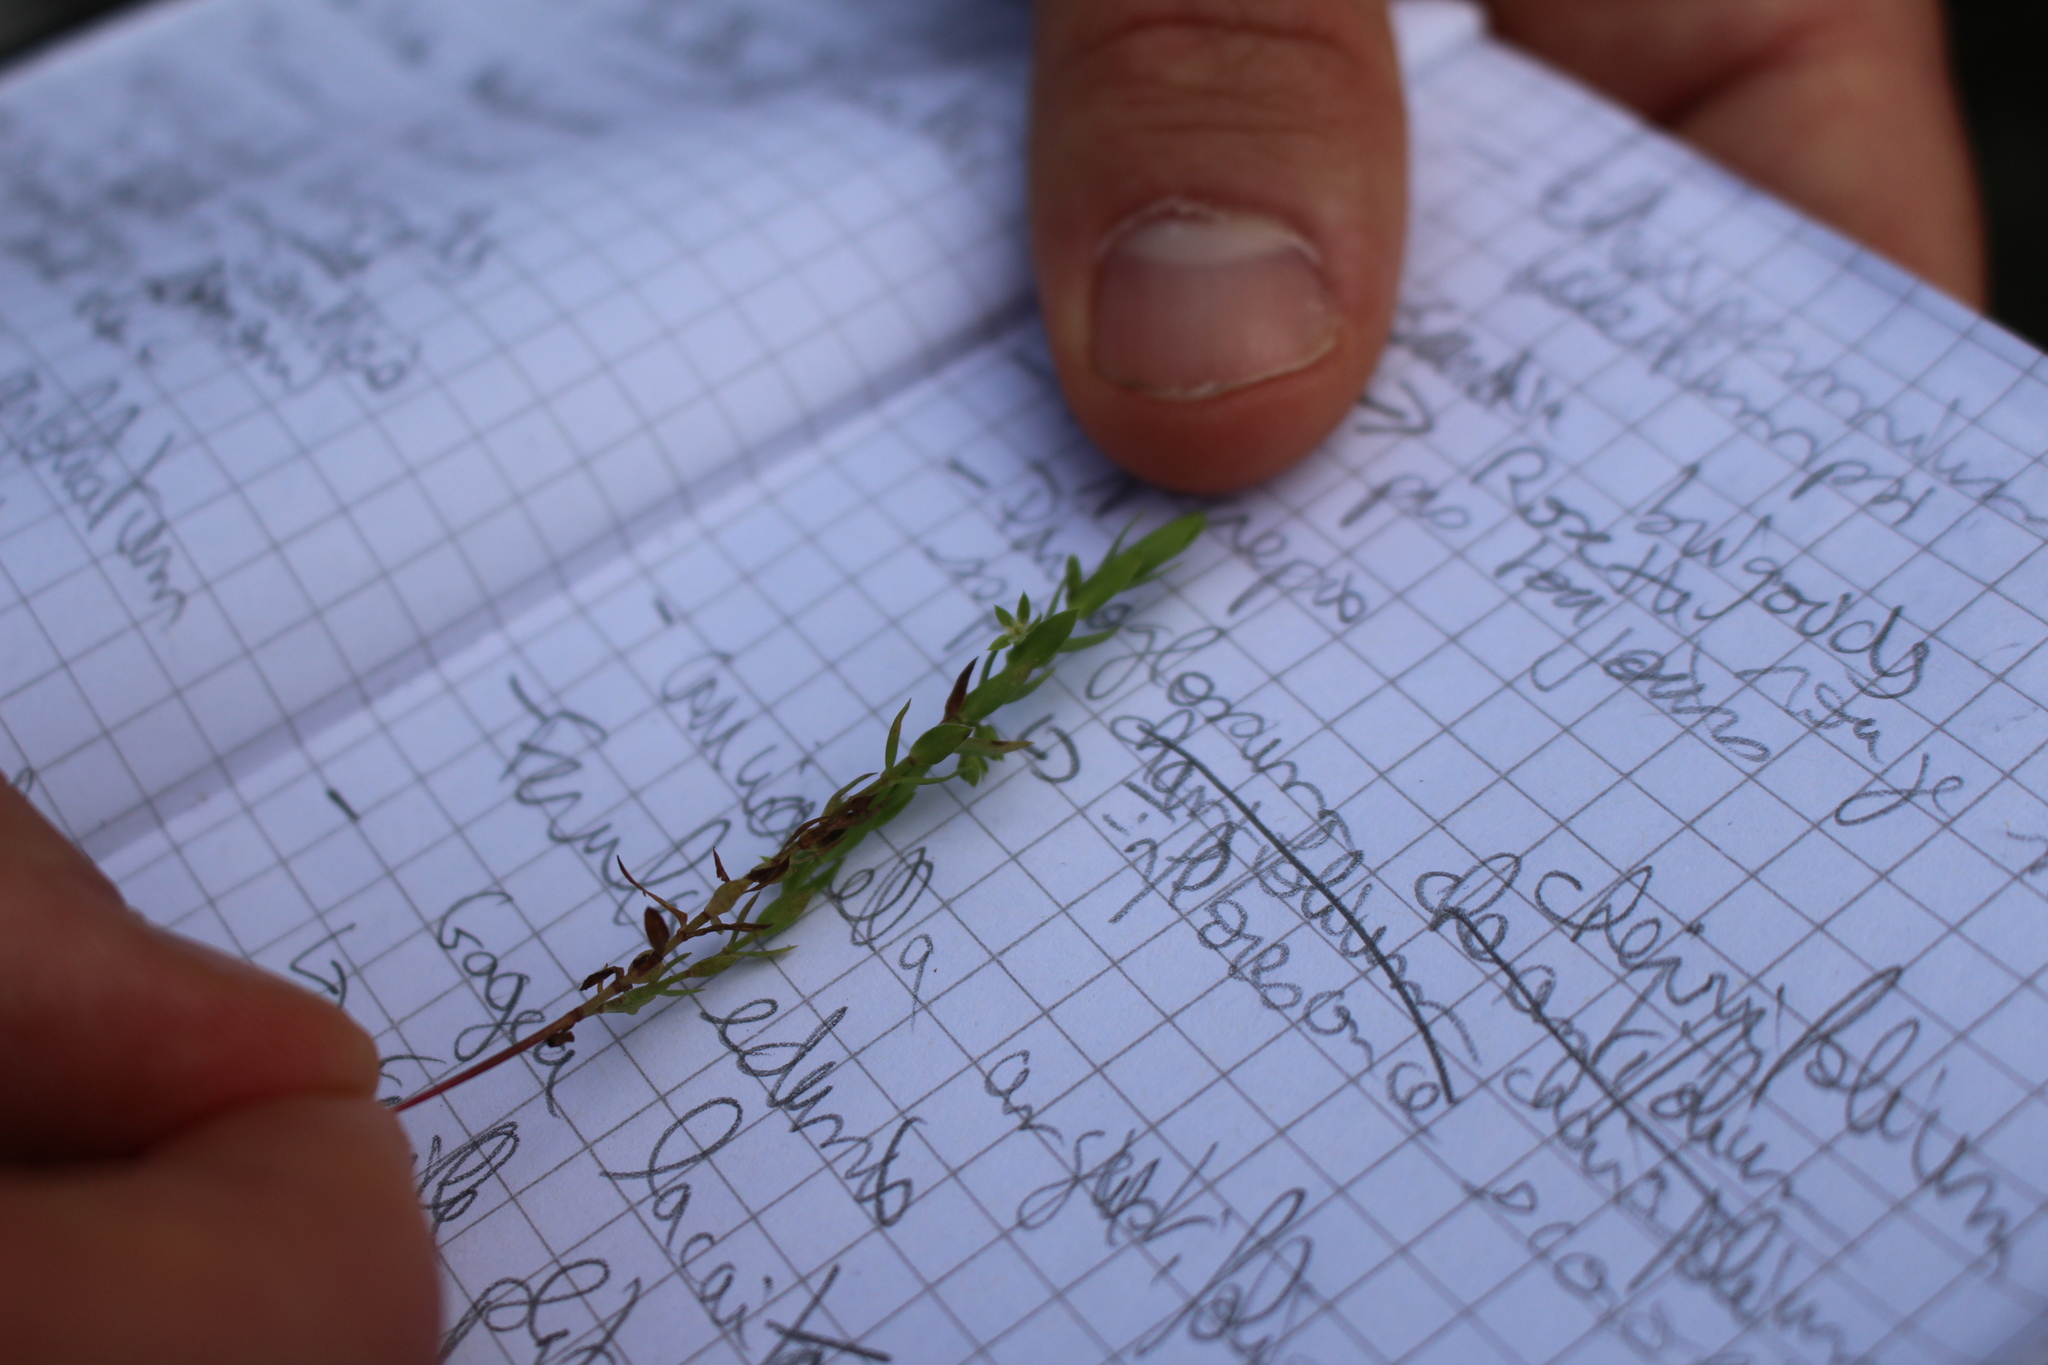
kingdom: Plantae
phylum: Tracheophyta
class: Magnoliopsida
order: Ericales
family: Primulaceae
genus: Lysimachia
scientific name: Lysimachia linum-stellatum
